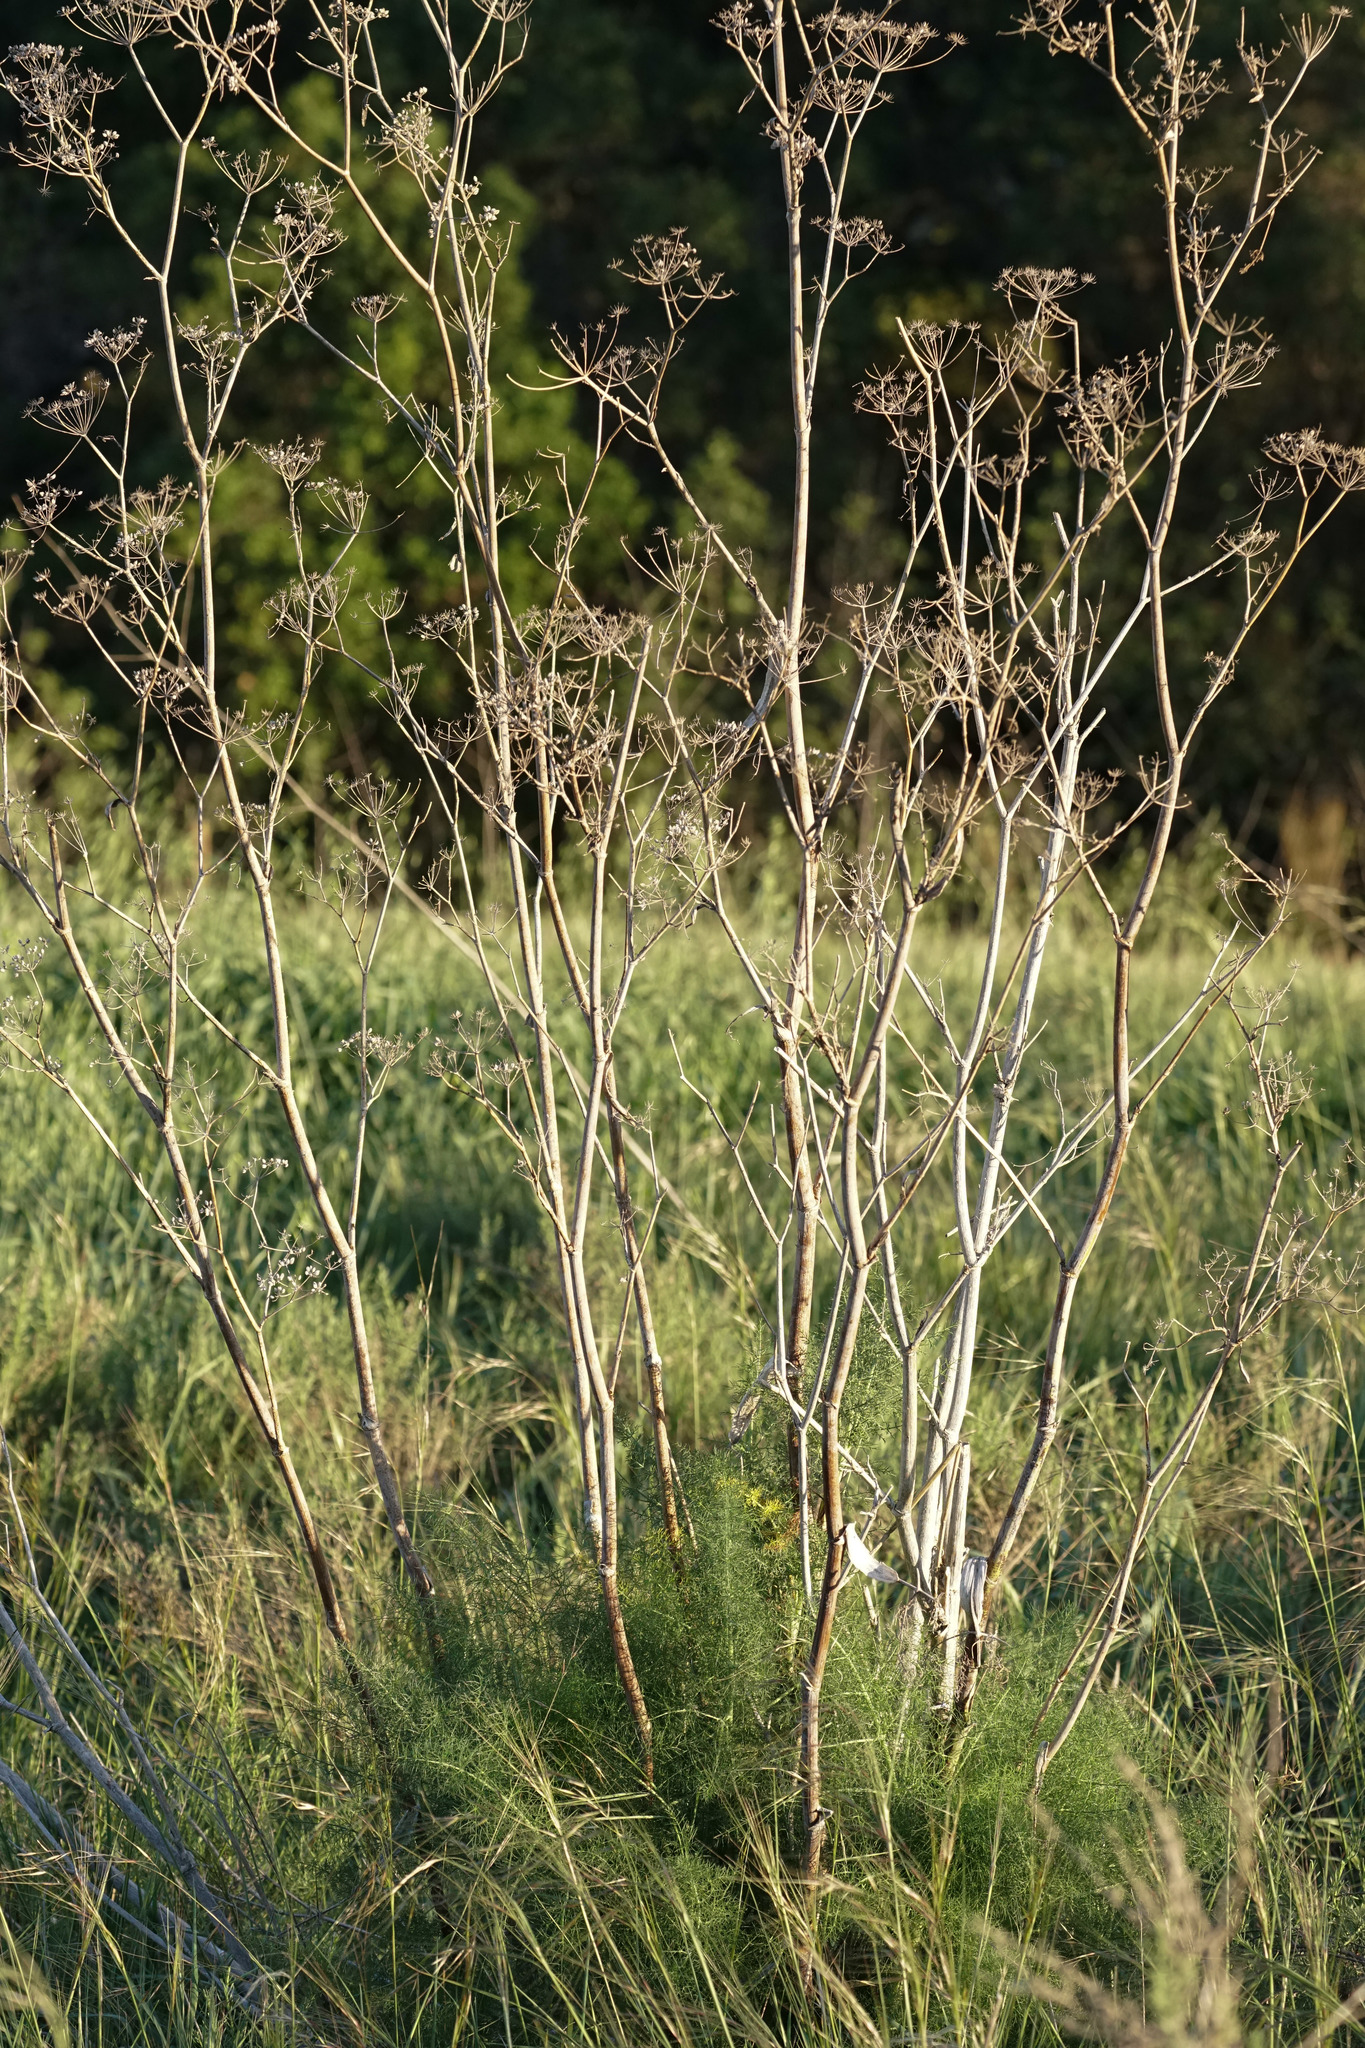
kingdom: Plantae
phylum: Tracheophyta
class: Magnoliopsida
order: Apiales
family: Apiaceae
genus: Foeniculum
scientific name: Foeniculum vulgare
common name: Fennel
